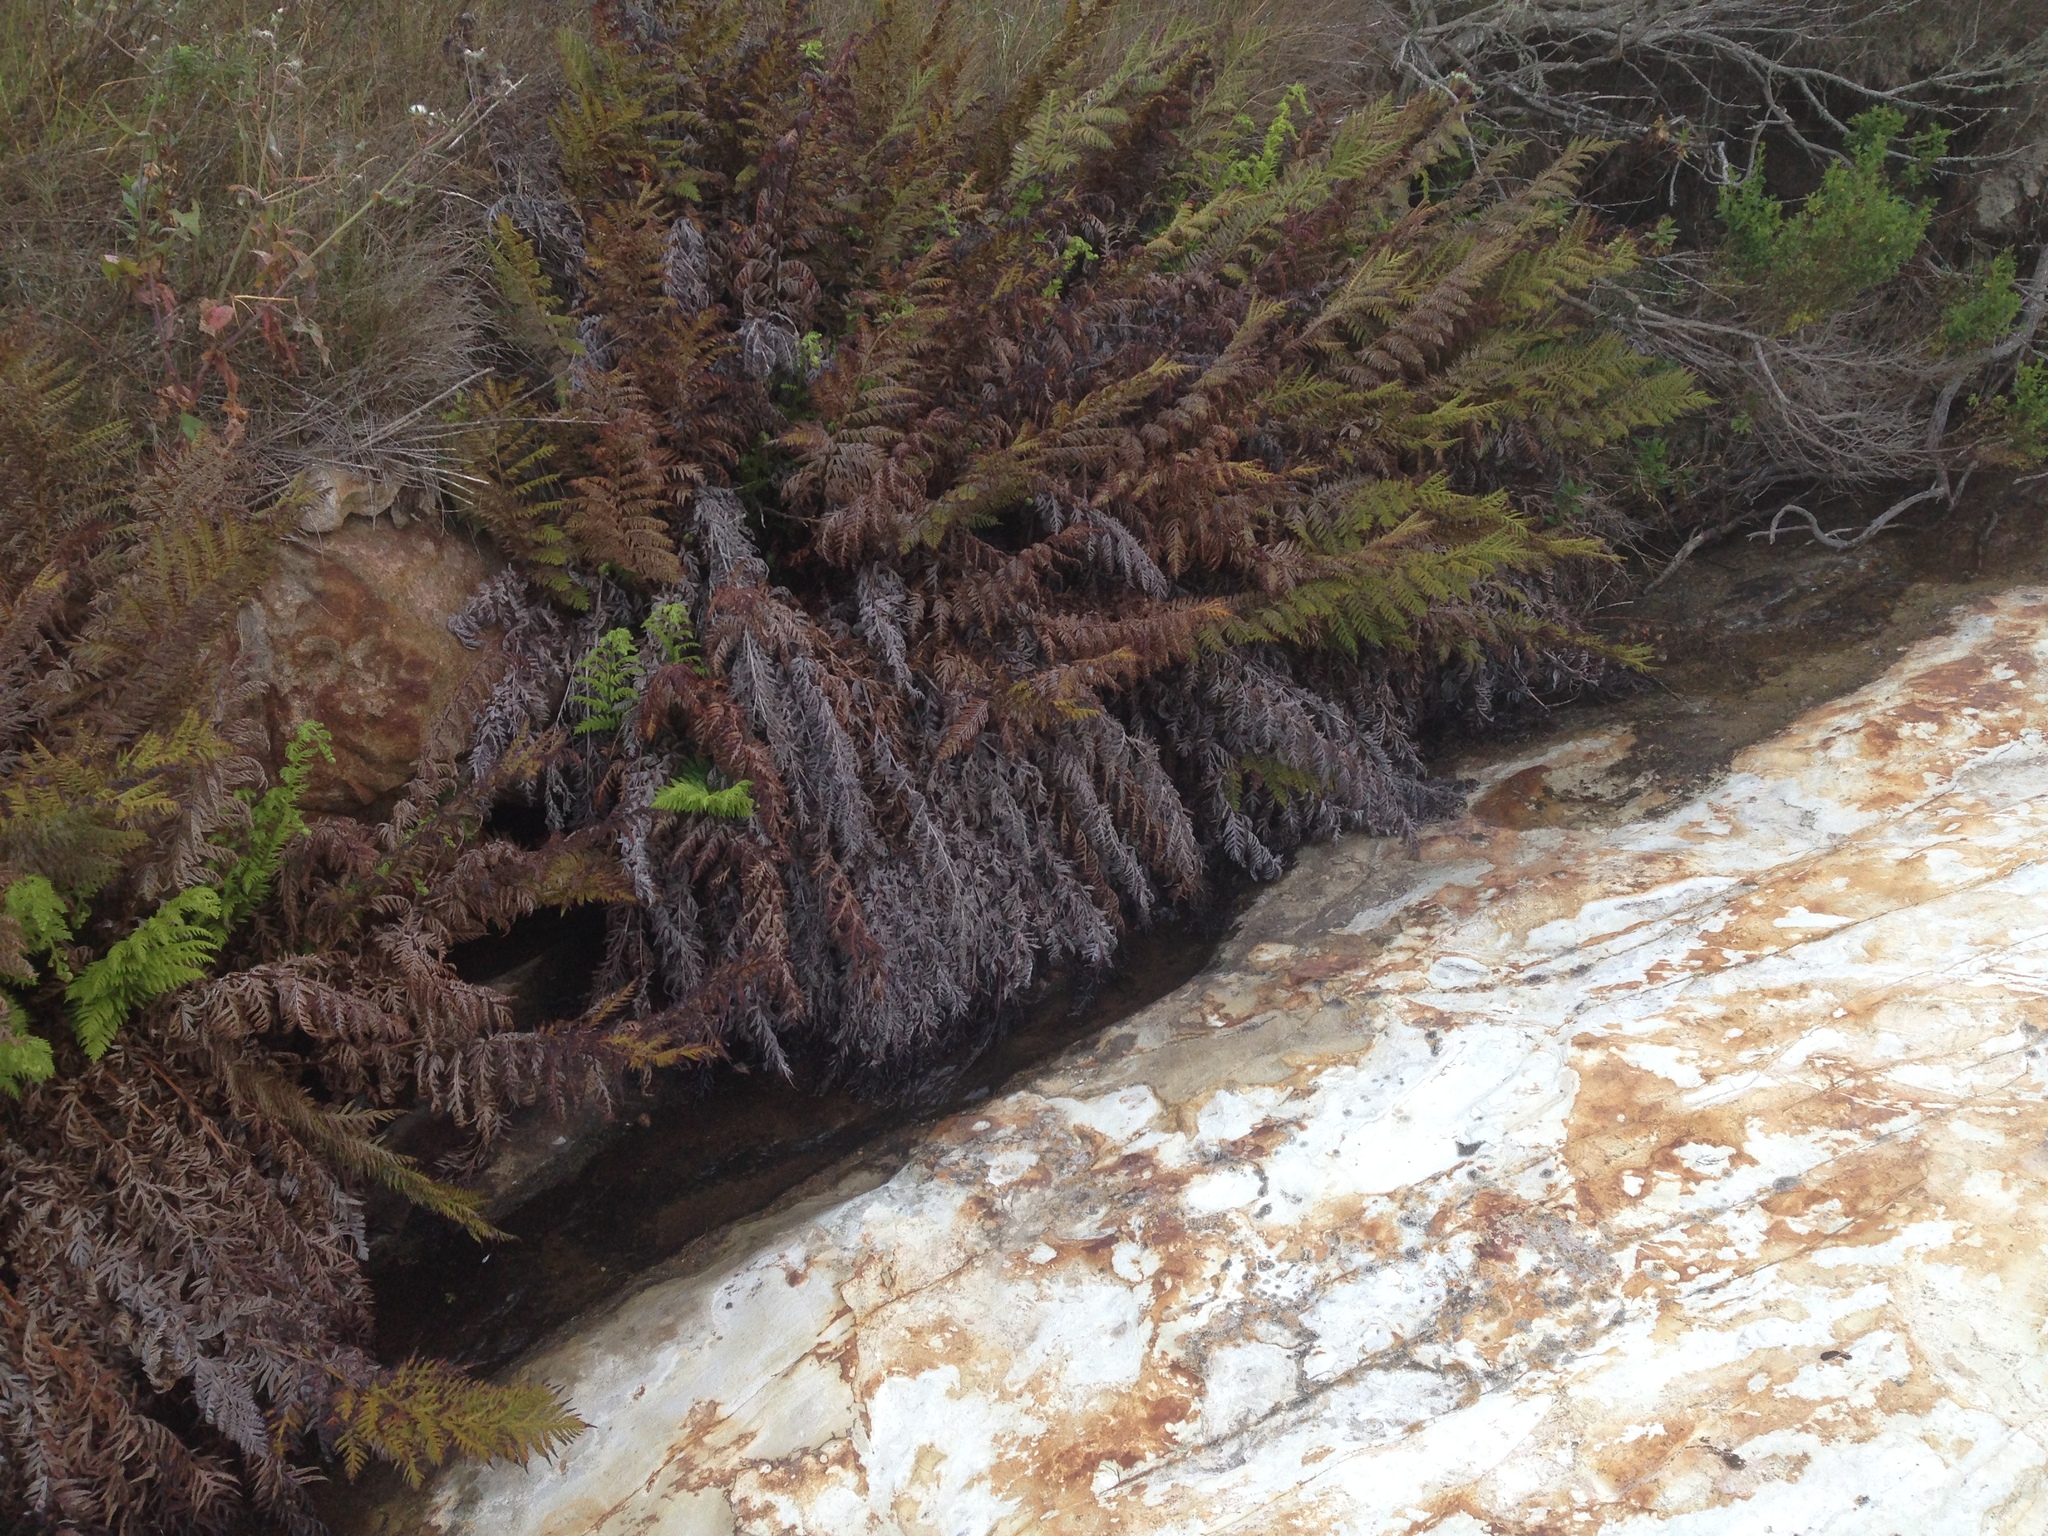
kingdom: Plantae
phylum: Tracheophyta
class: Polypodiopsida
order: Polypodiales
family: Blechnaceae
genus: Woodwardia
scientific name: Woodwardia fimbriata
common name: Giant chain fern
